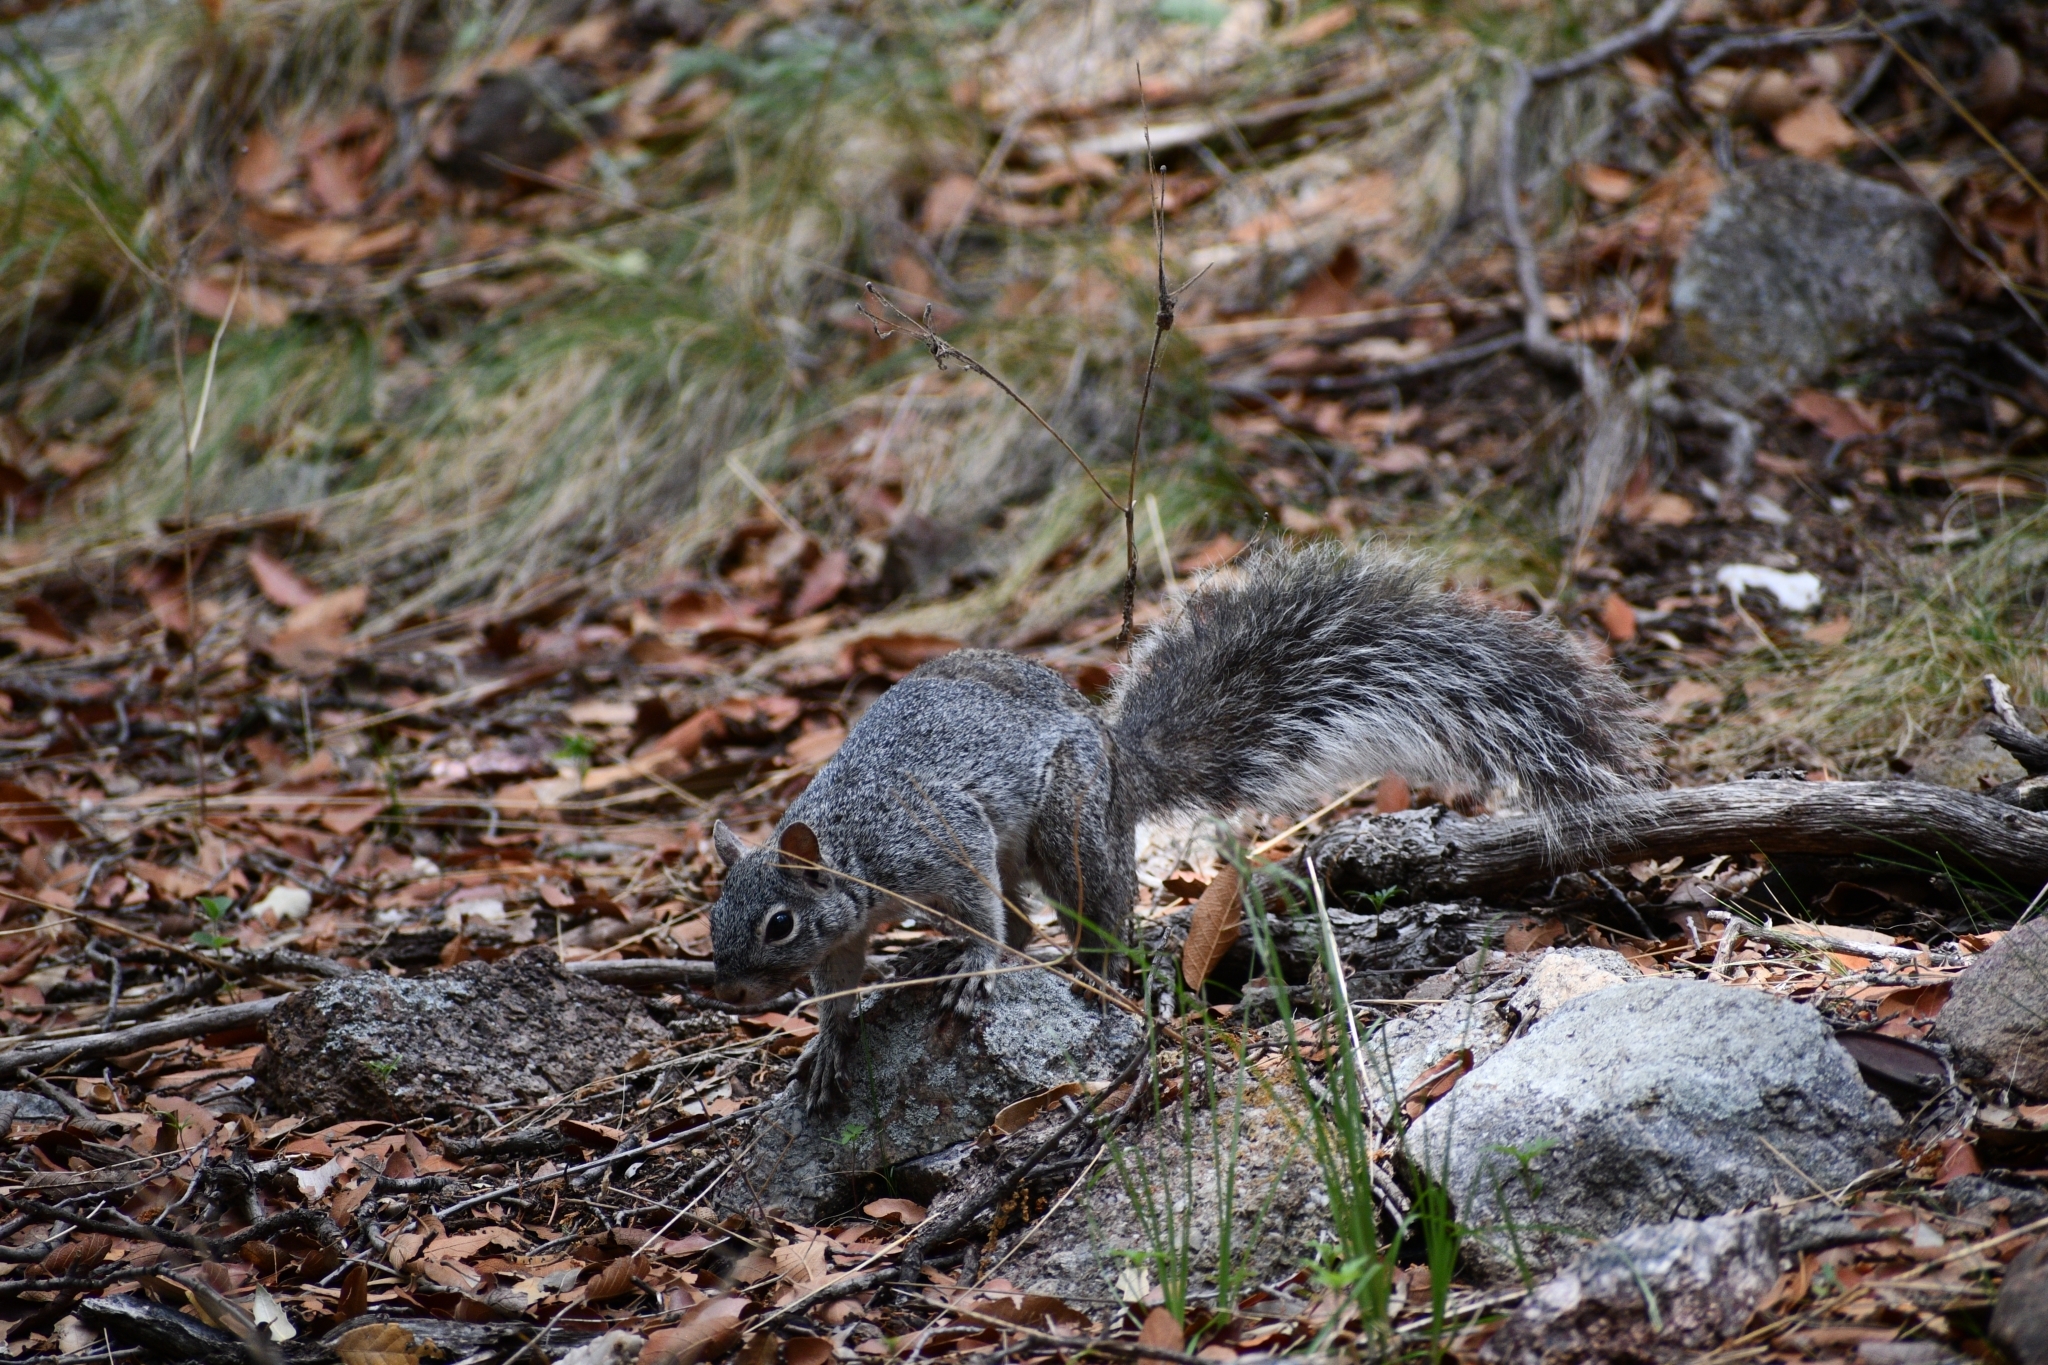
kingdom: Animalia
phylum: Chordata
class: Mammalia
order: Rodentia
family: Sciuridae
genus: Sciurus
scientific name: Sciurus arizonensis
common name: Arizona gray squirrel
